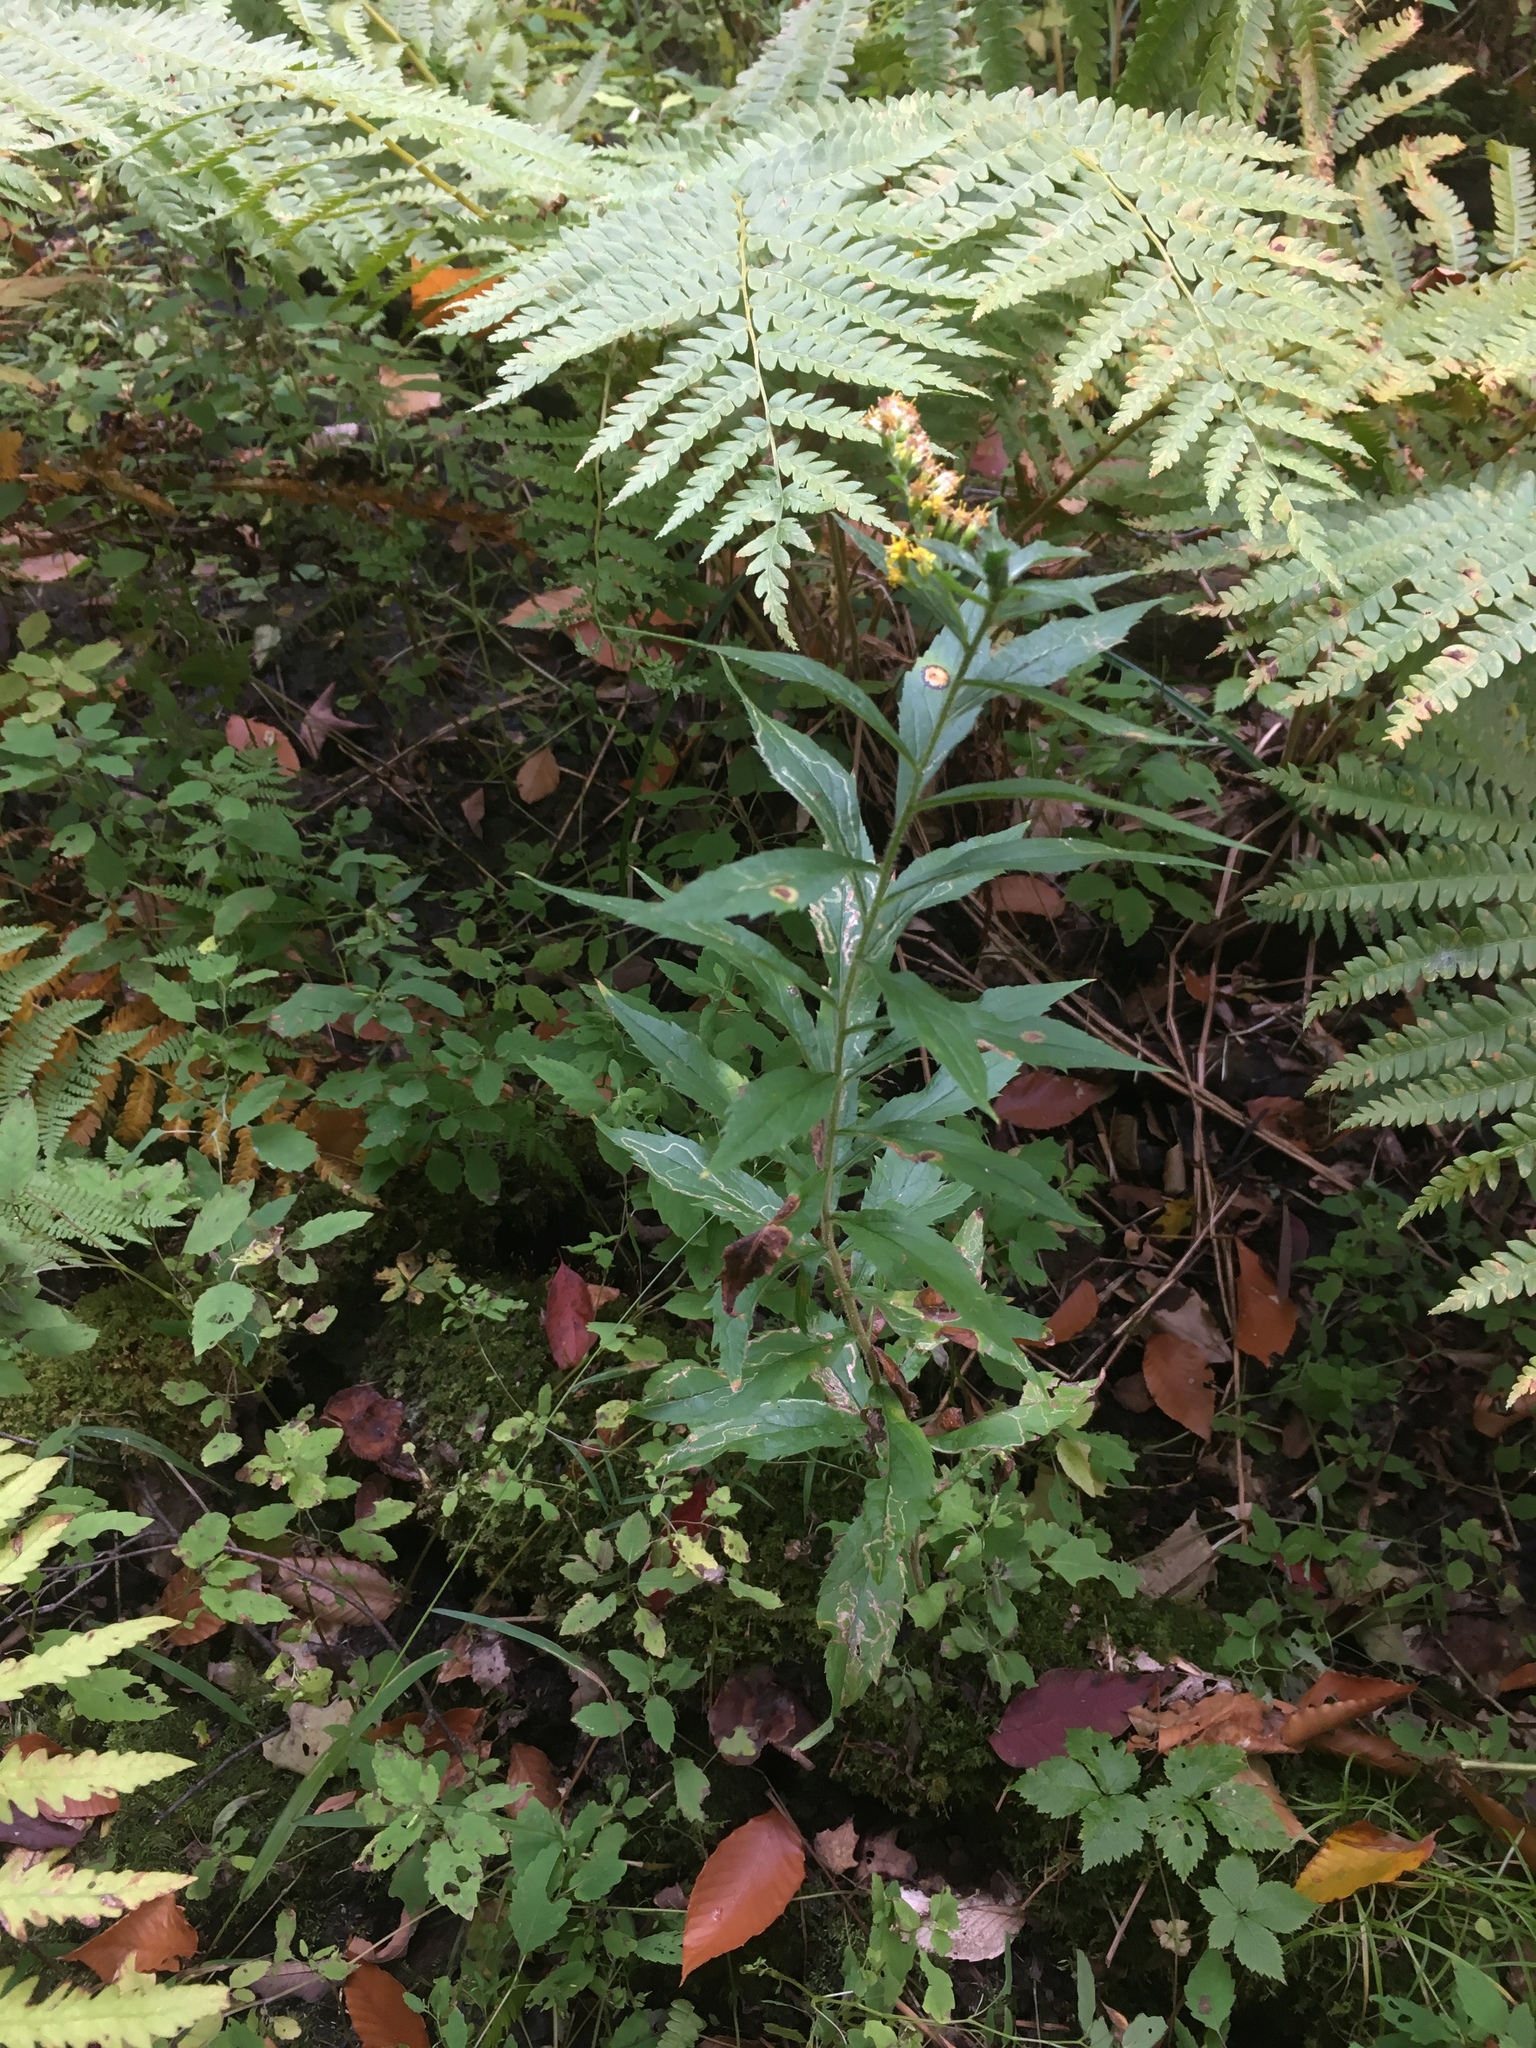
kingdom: Plantae
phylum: Tracheophyta
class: Magnoliopsida
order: Asterales
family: Asteraceae
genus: Solidago
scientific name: Solidago rugosa
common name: Rough-stemmed goldenrod
